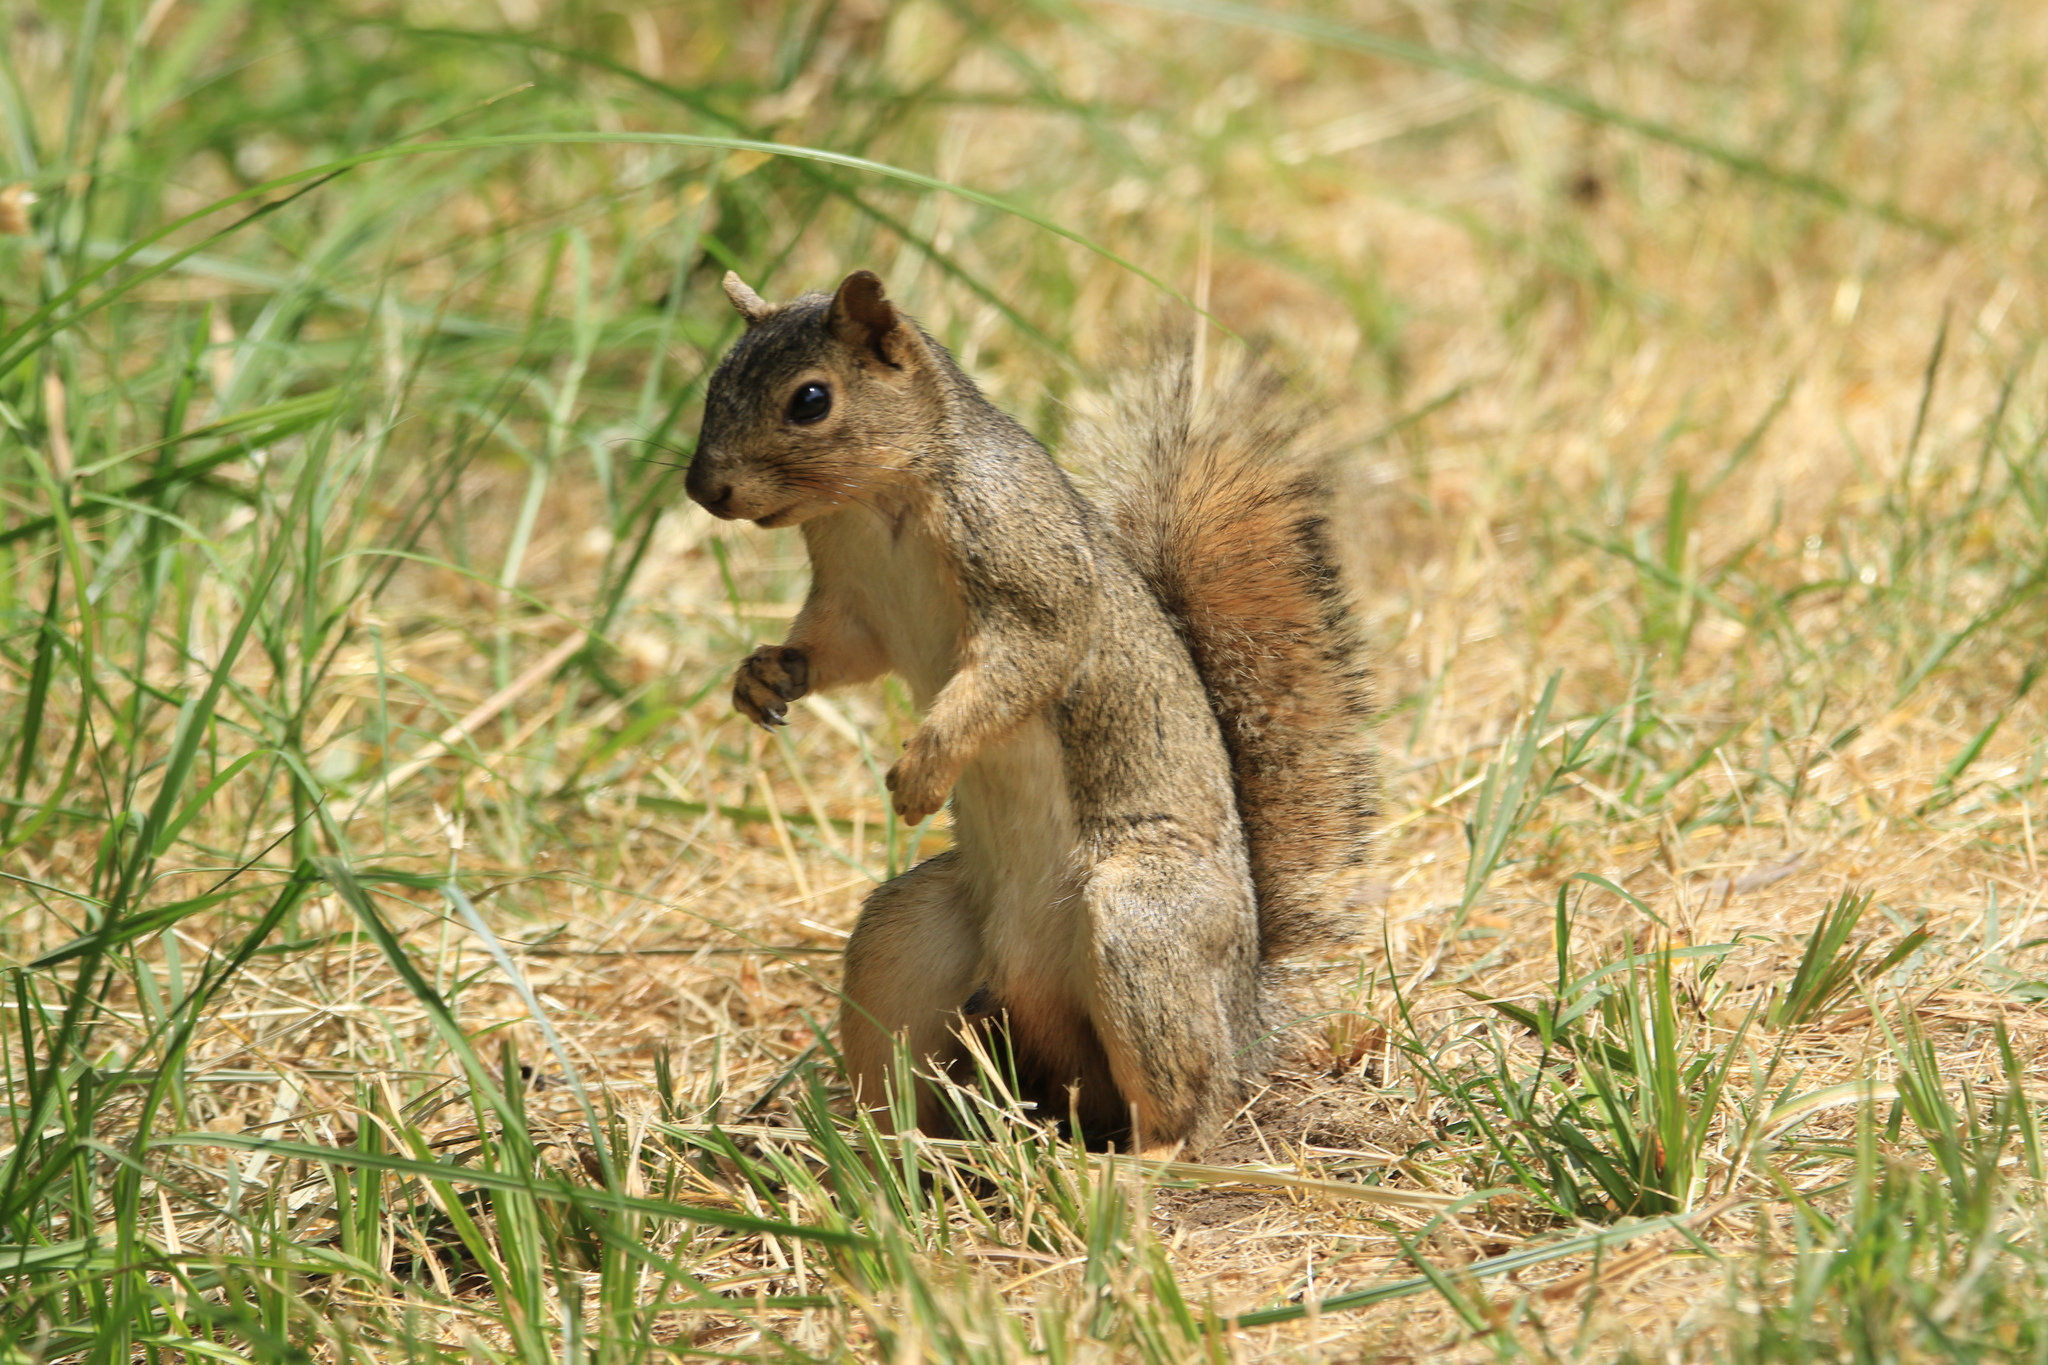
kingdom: Animalia
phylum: Chordata
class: Mammalia
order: Rodentia
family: Sciuridae
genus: Sciurus
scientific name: Sciurus niger
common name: Fox squirrel
